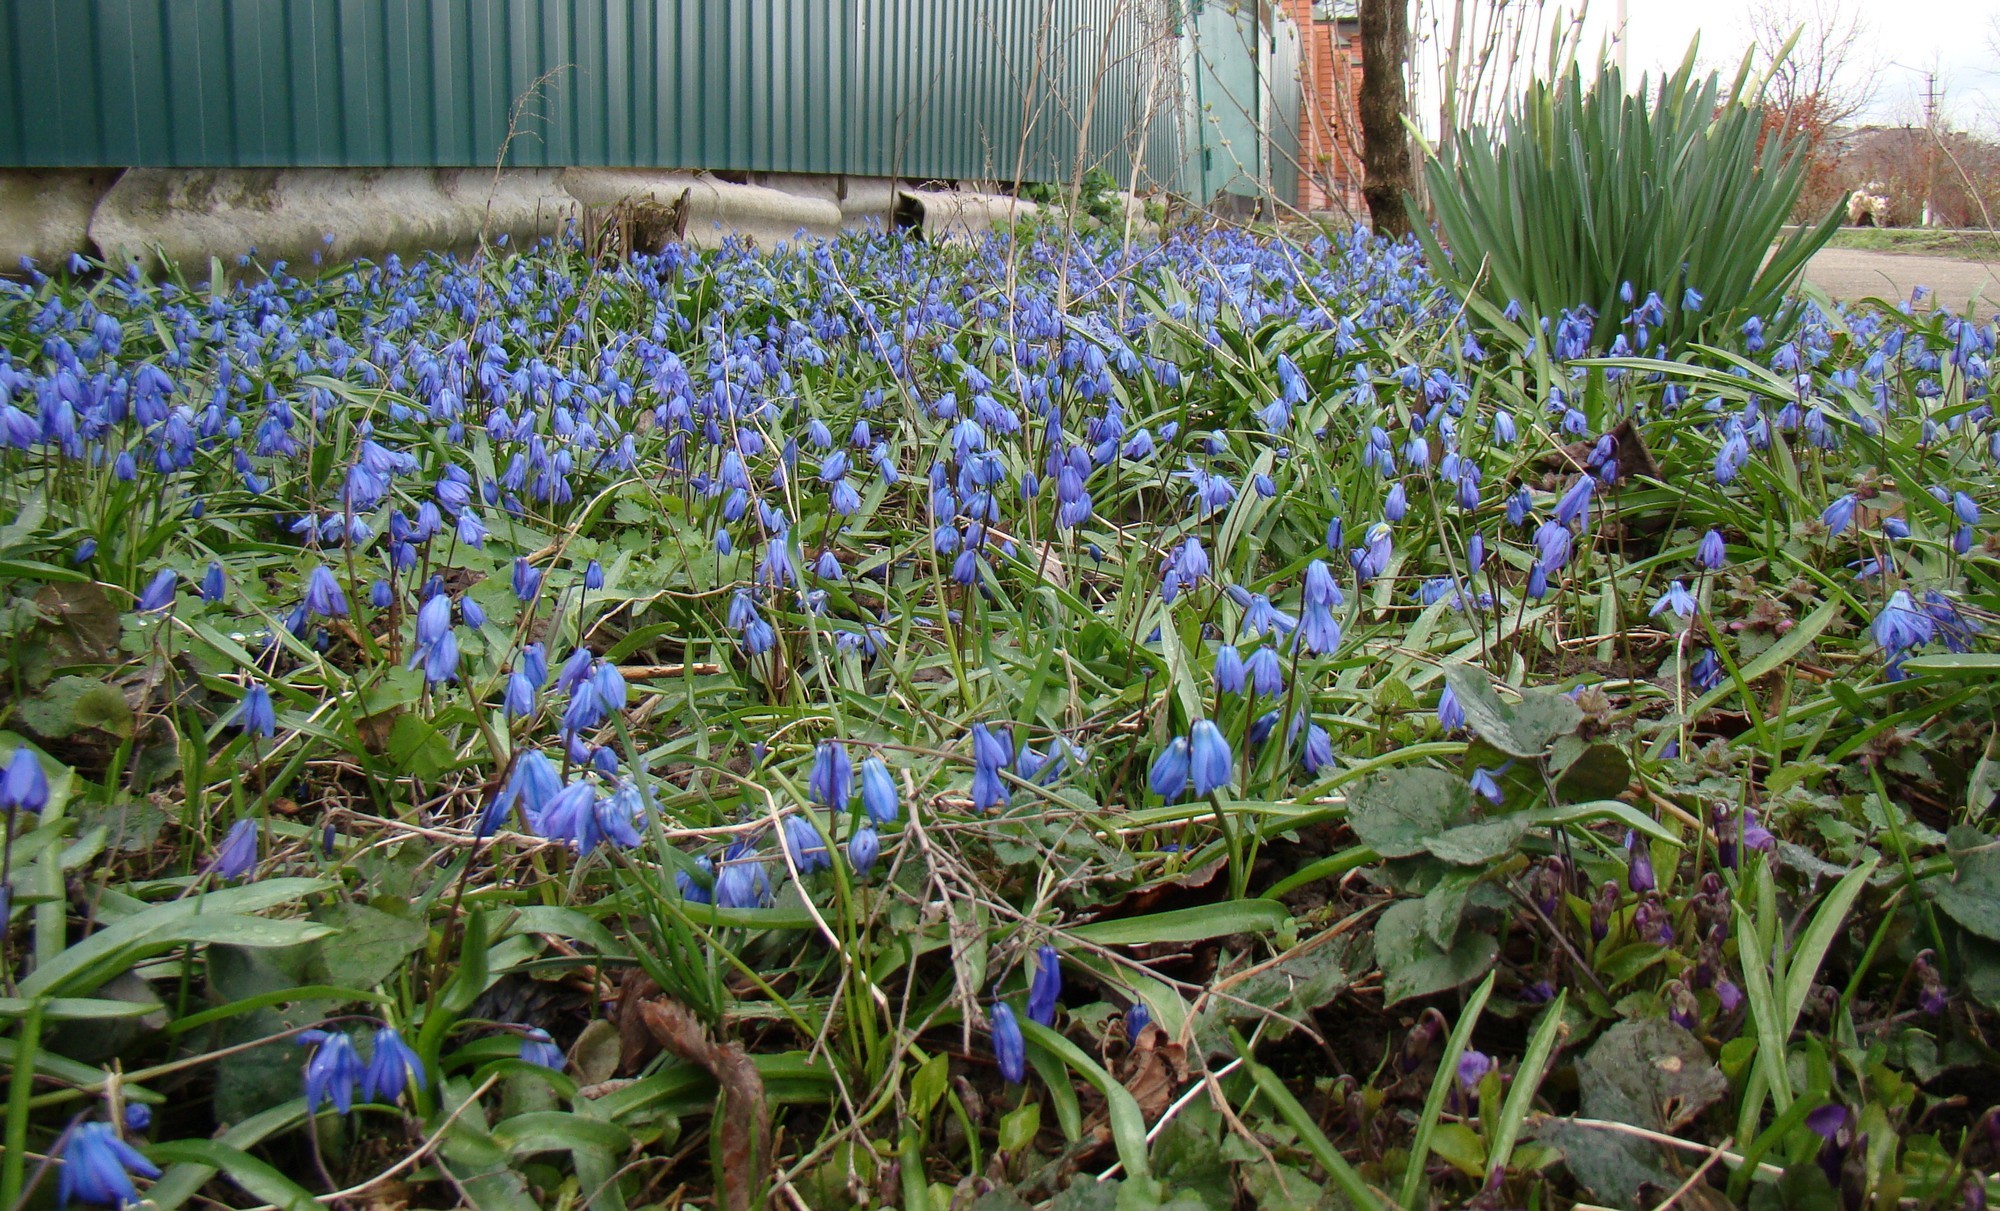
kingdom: Plantae
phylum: Tracheophyta
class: Liliopsida
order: Asparagales
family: Asparagaceae
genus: Scilla
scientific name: Scilla siberica
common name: Siberian squill
